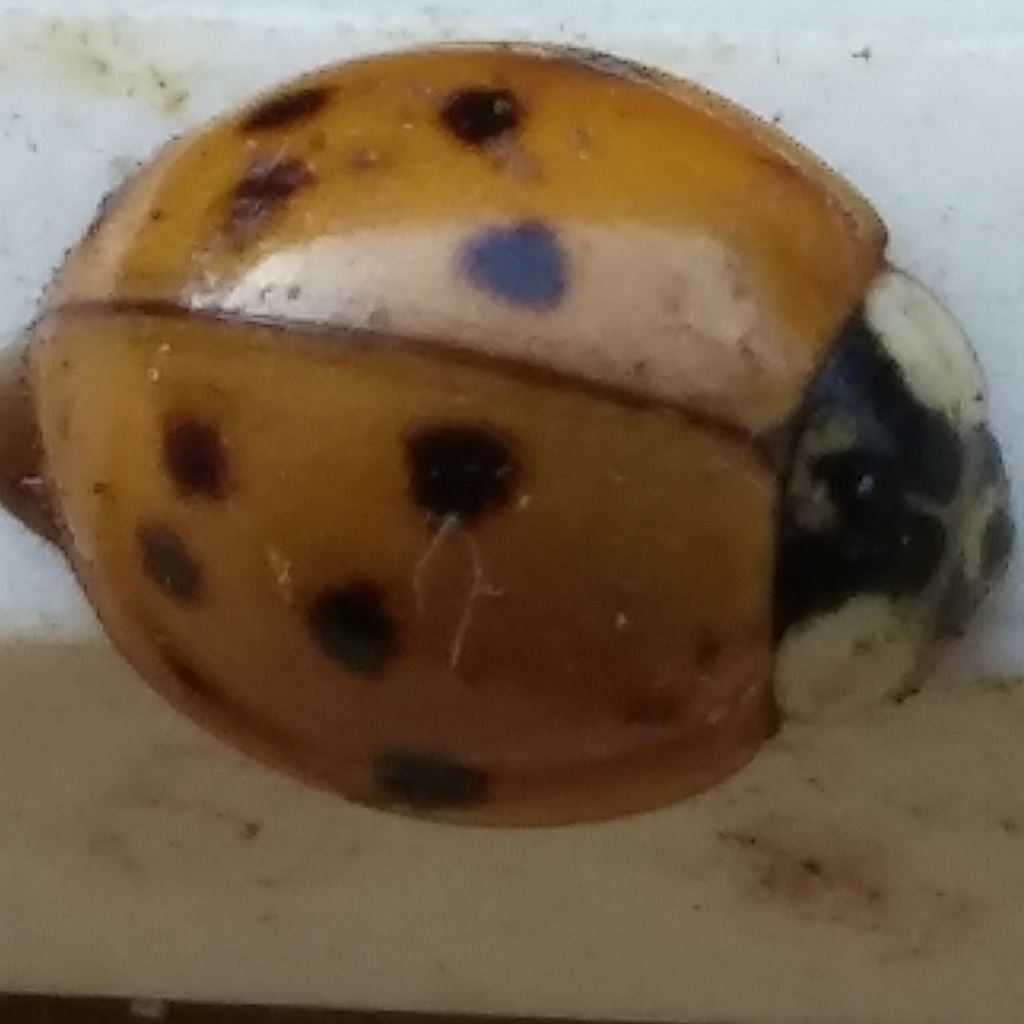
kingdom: Animalia
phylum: Arthropoda
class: Insecta
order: Coleoptera
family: Coccinellidae
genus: Harmonia
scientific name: Harmonia axyridis
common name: Harlequin ladybird
